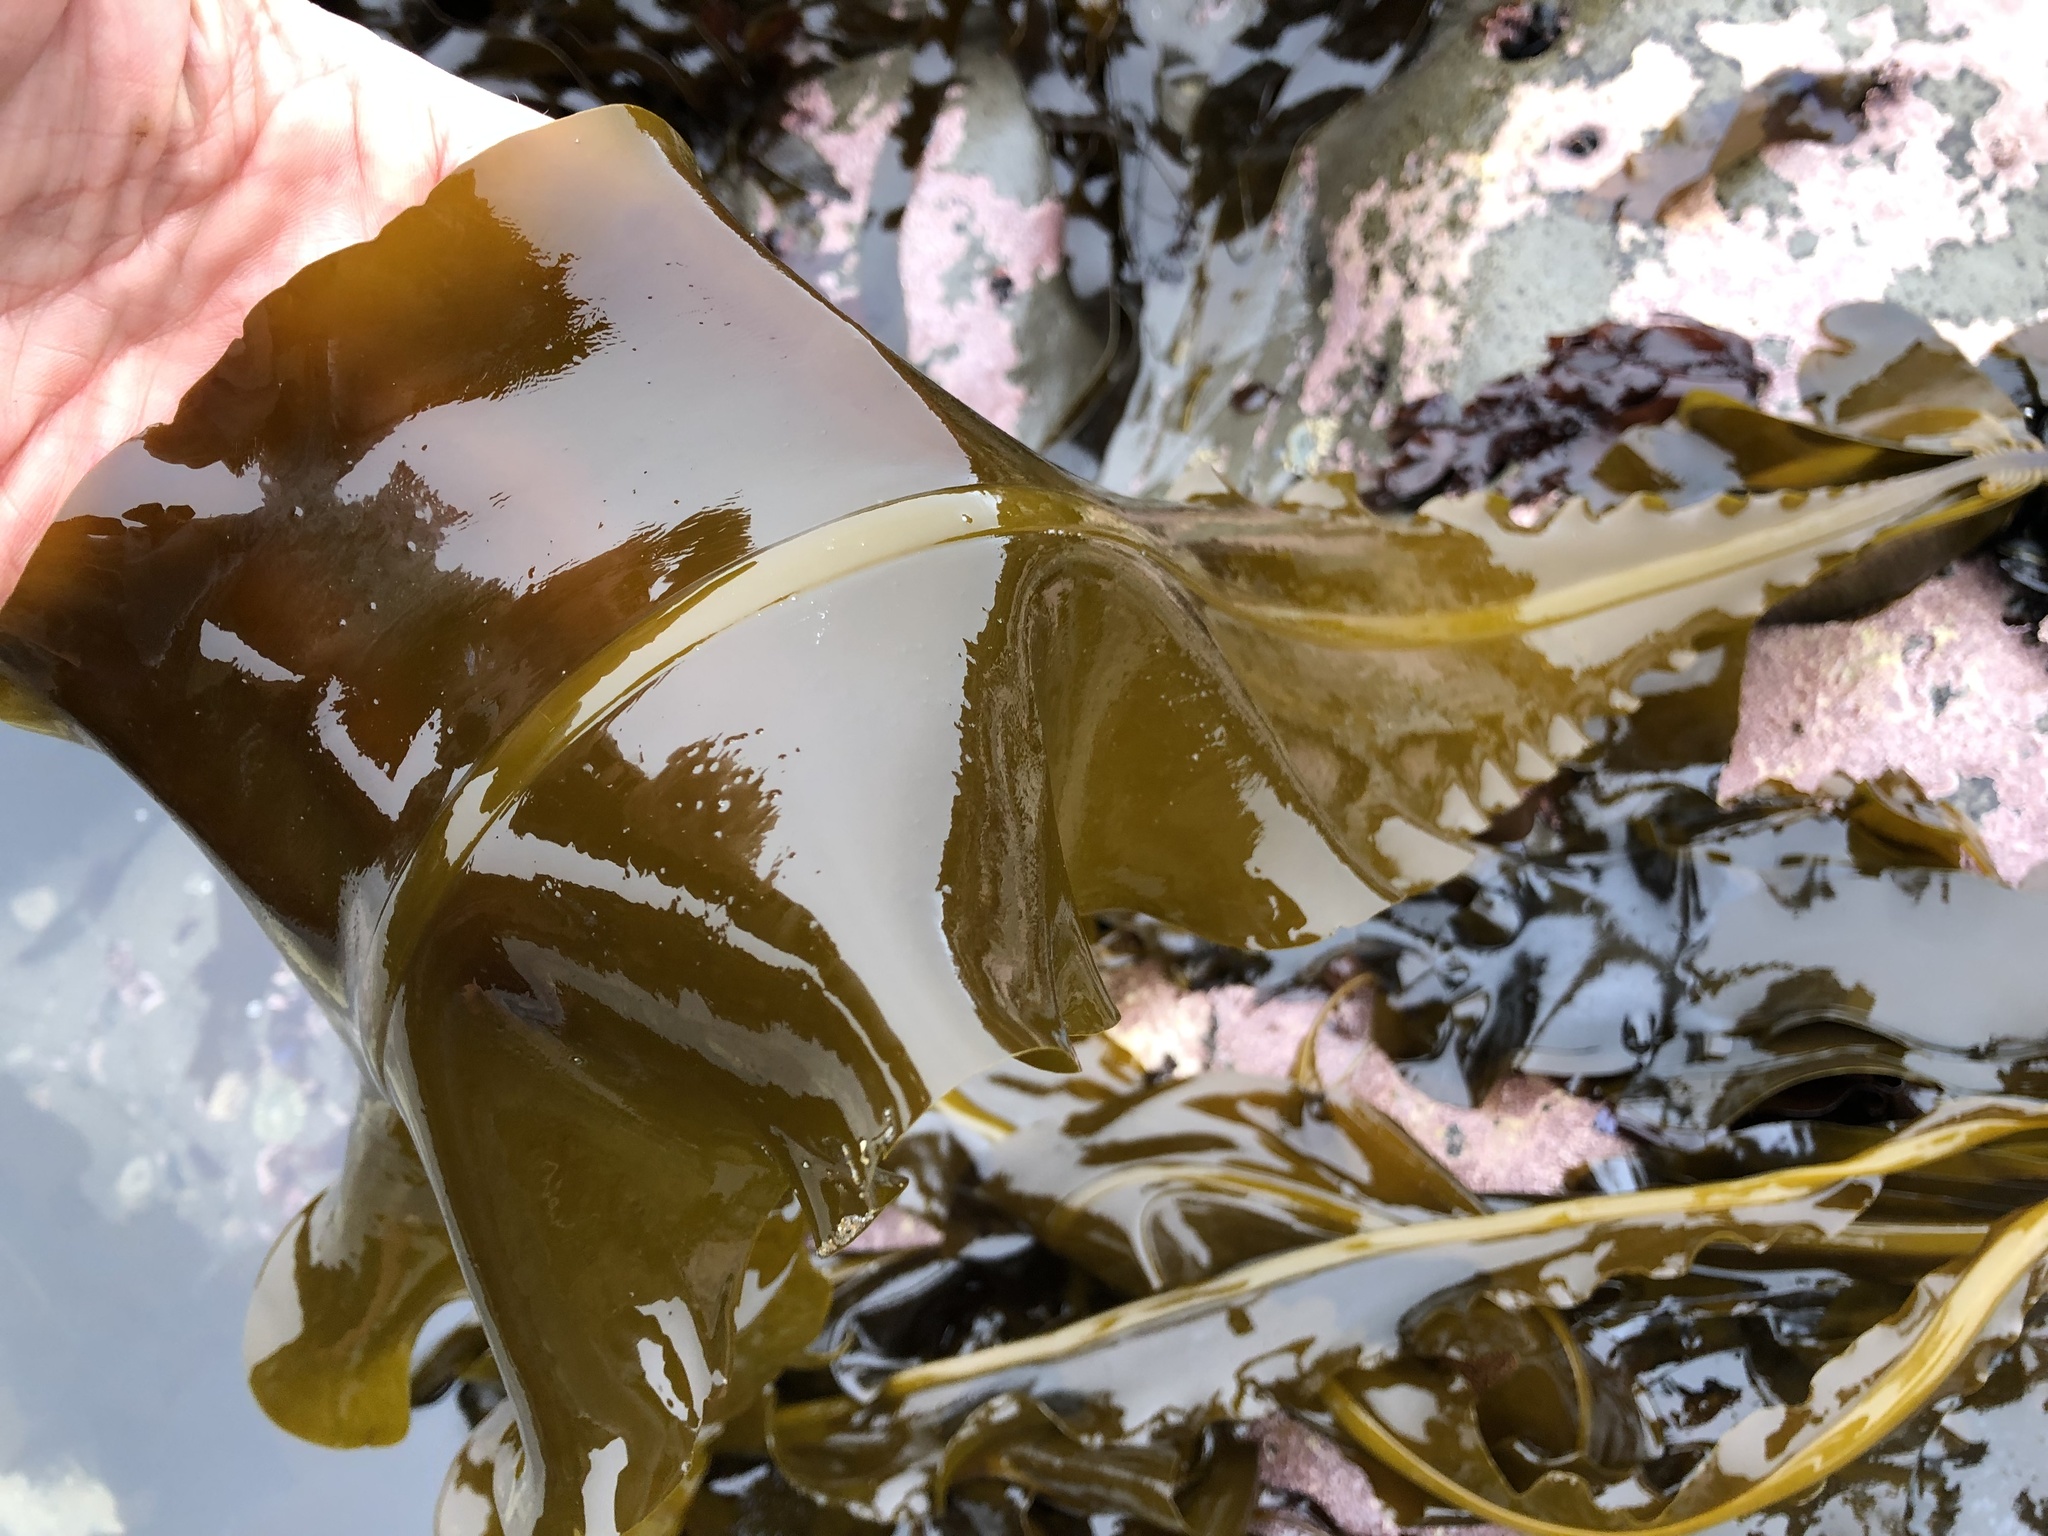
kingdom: Chromista
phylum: Ochrophyta
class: Phaeophyceae
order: Laminariales
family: Alariaceae
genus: Alaria
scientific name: Alaria marginata
